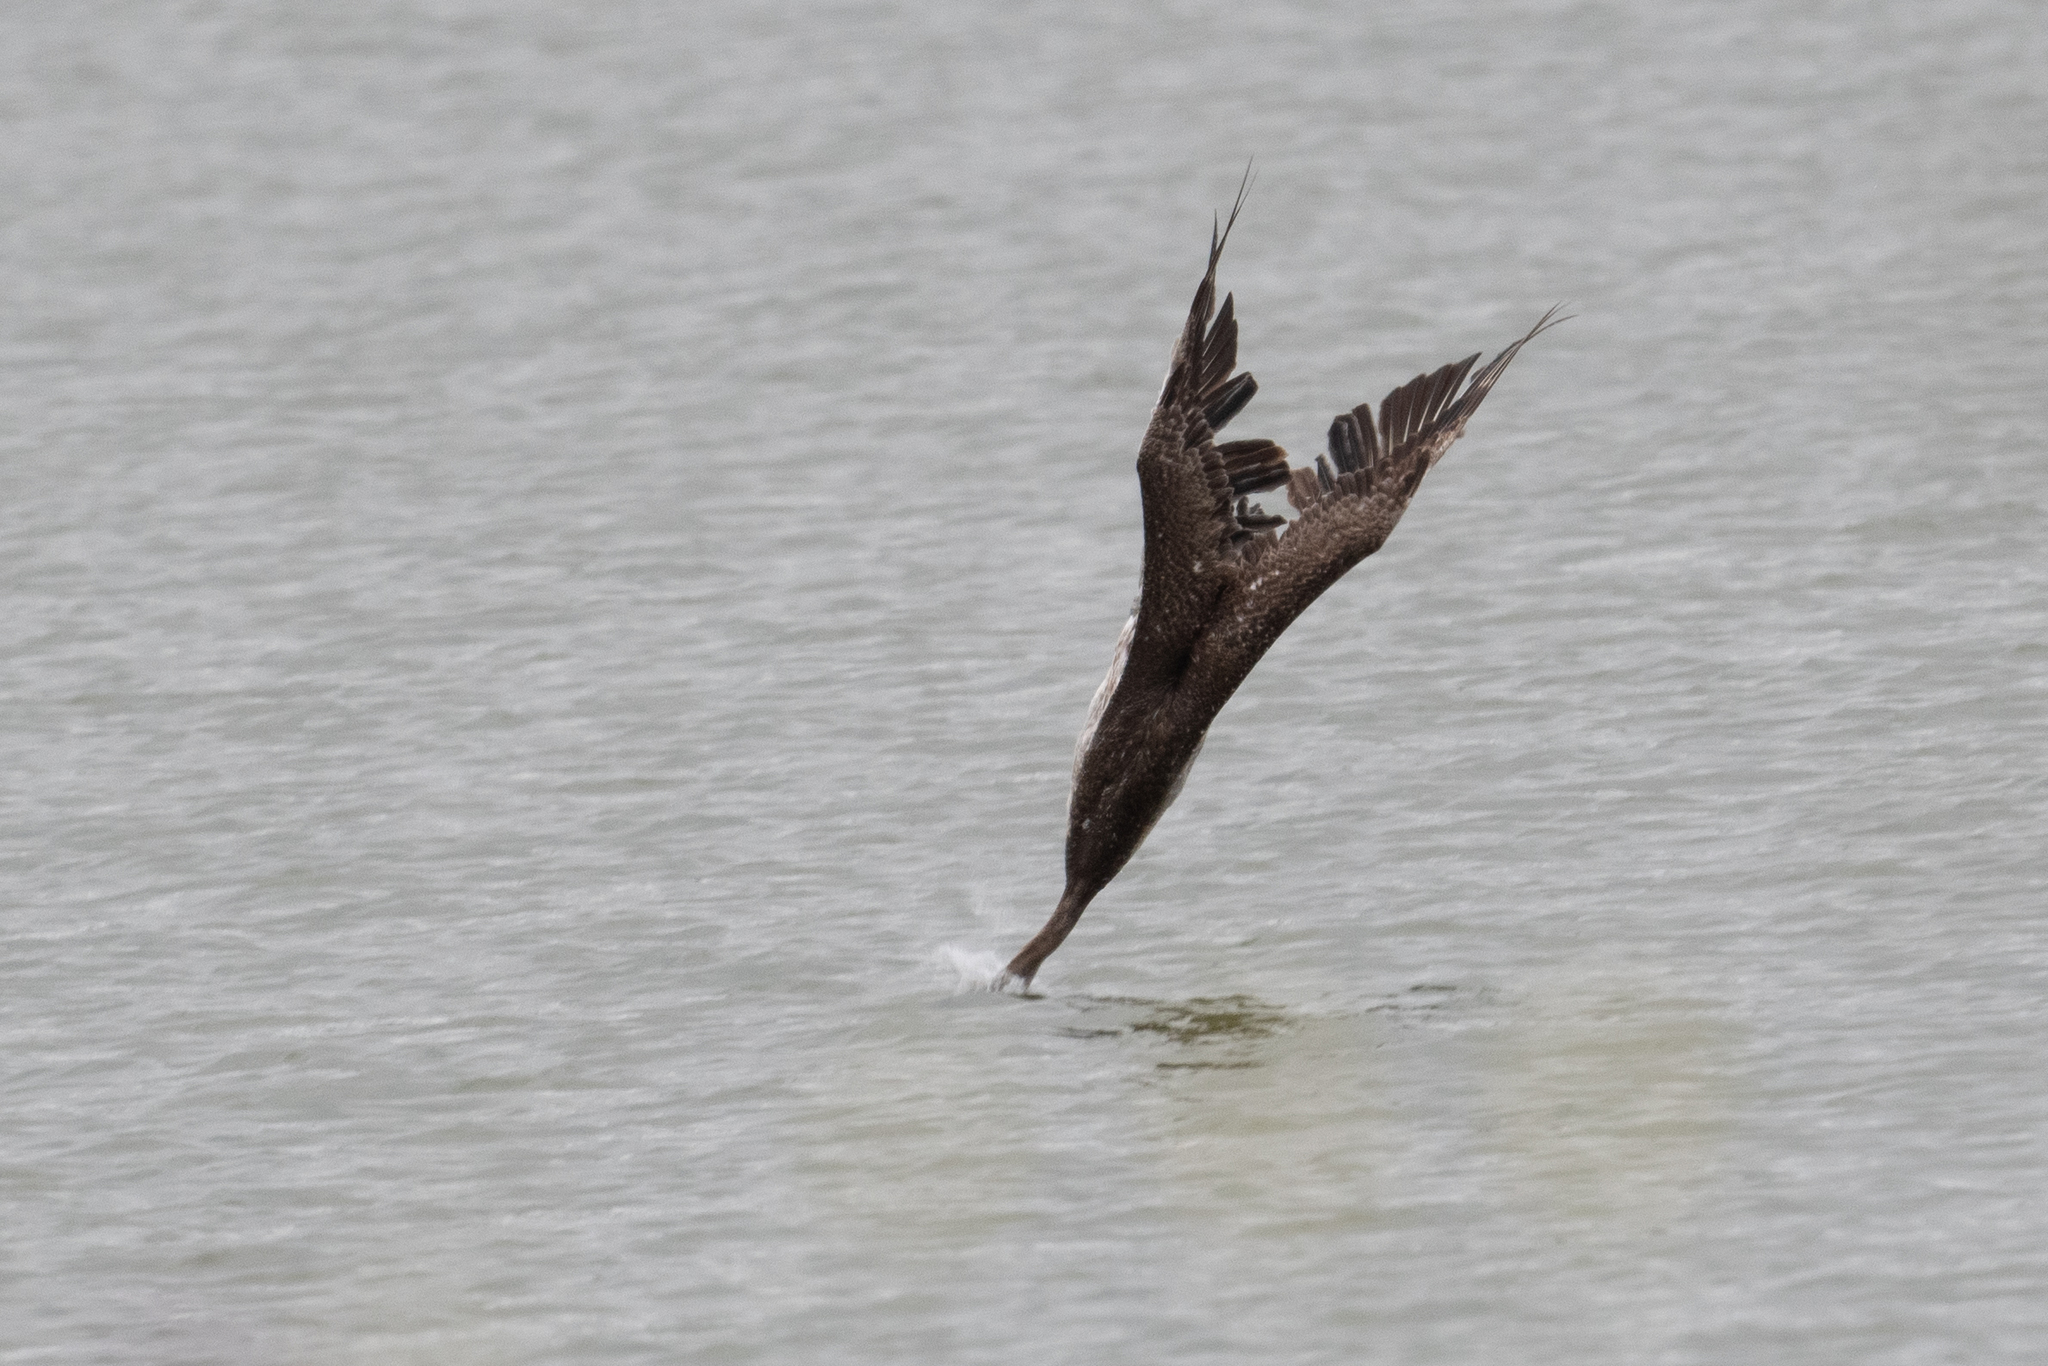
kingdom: Animalia
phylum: Chordata
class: Aves
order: Pelecaniformes
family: Pelecanidae
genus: Pelecanus
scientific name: Pelecanus occidentalis
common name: Brown pelican
